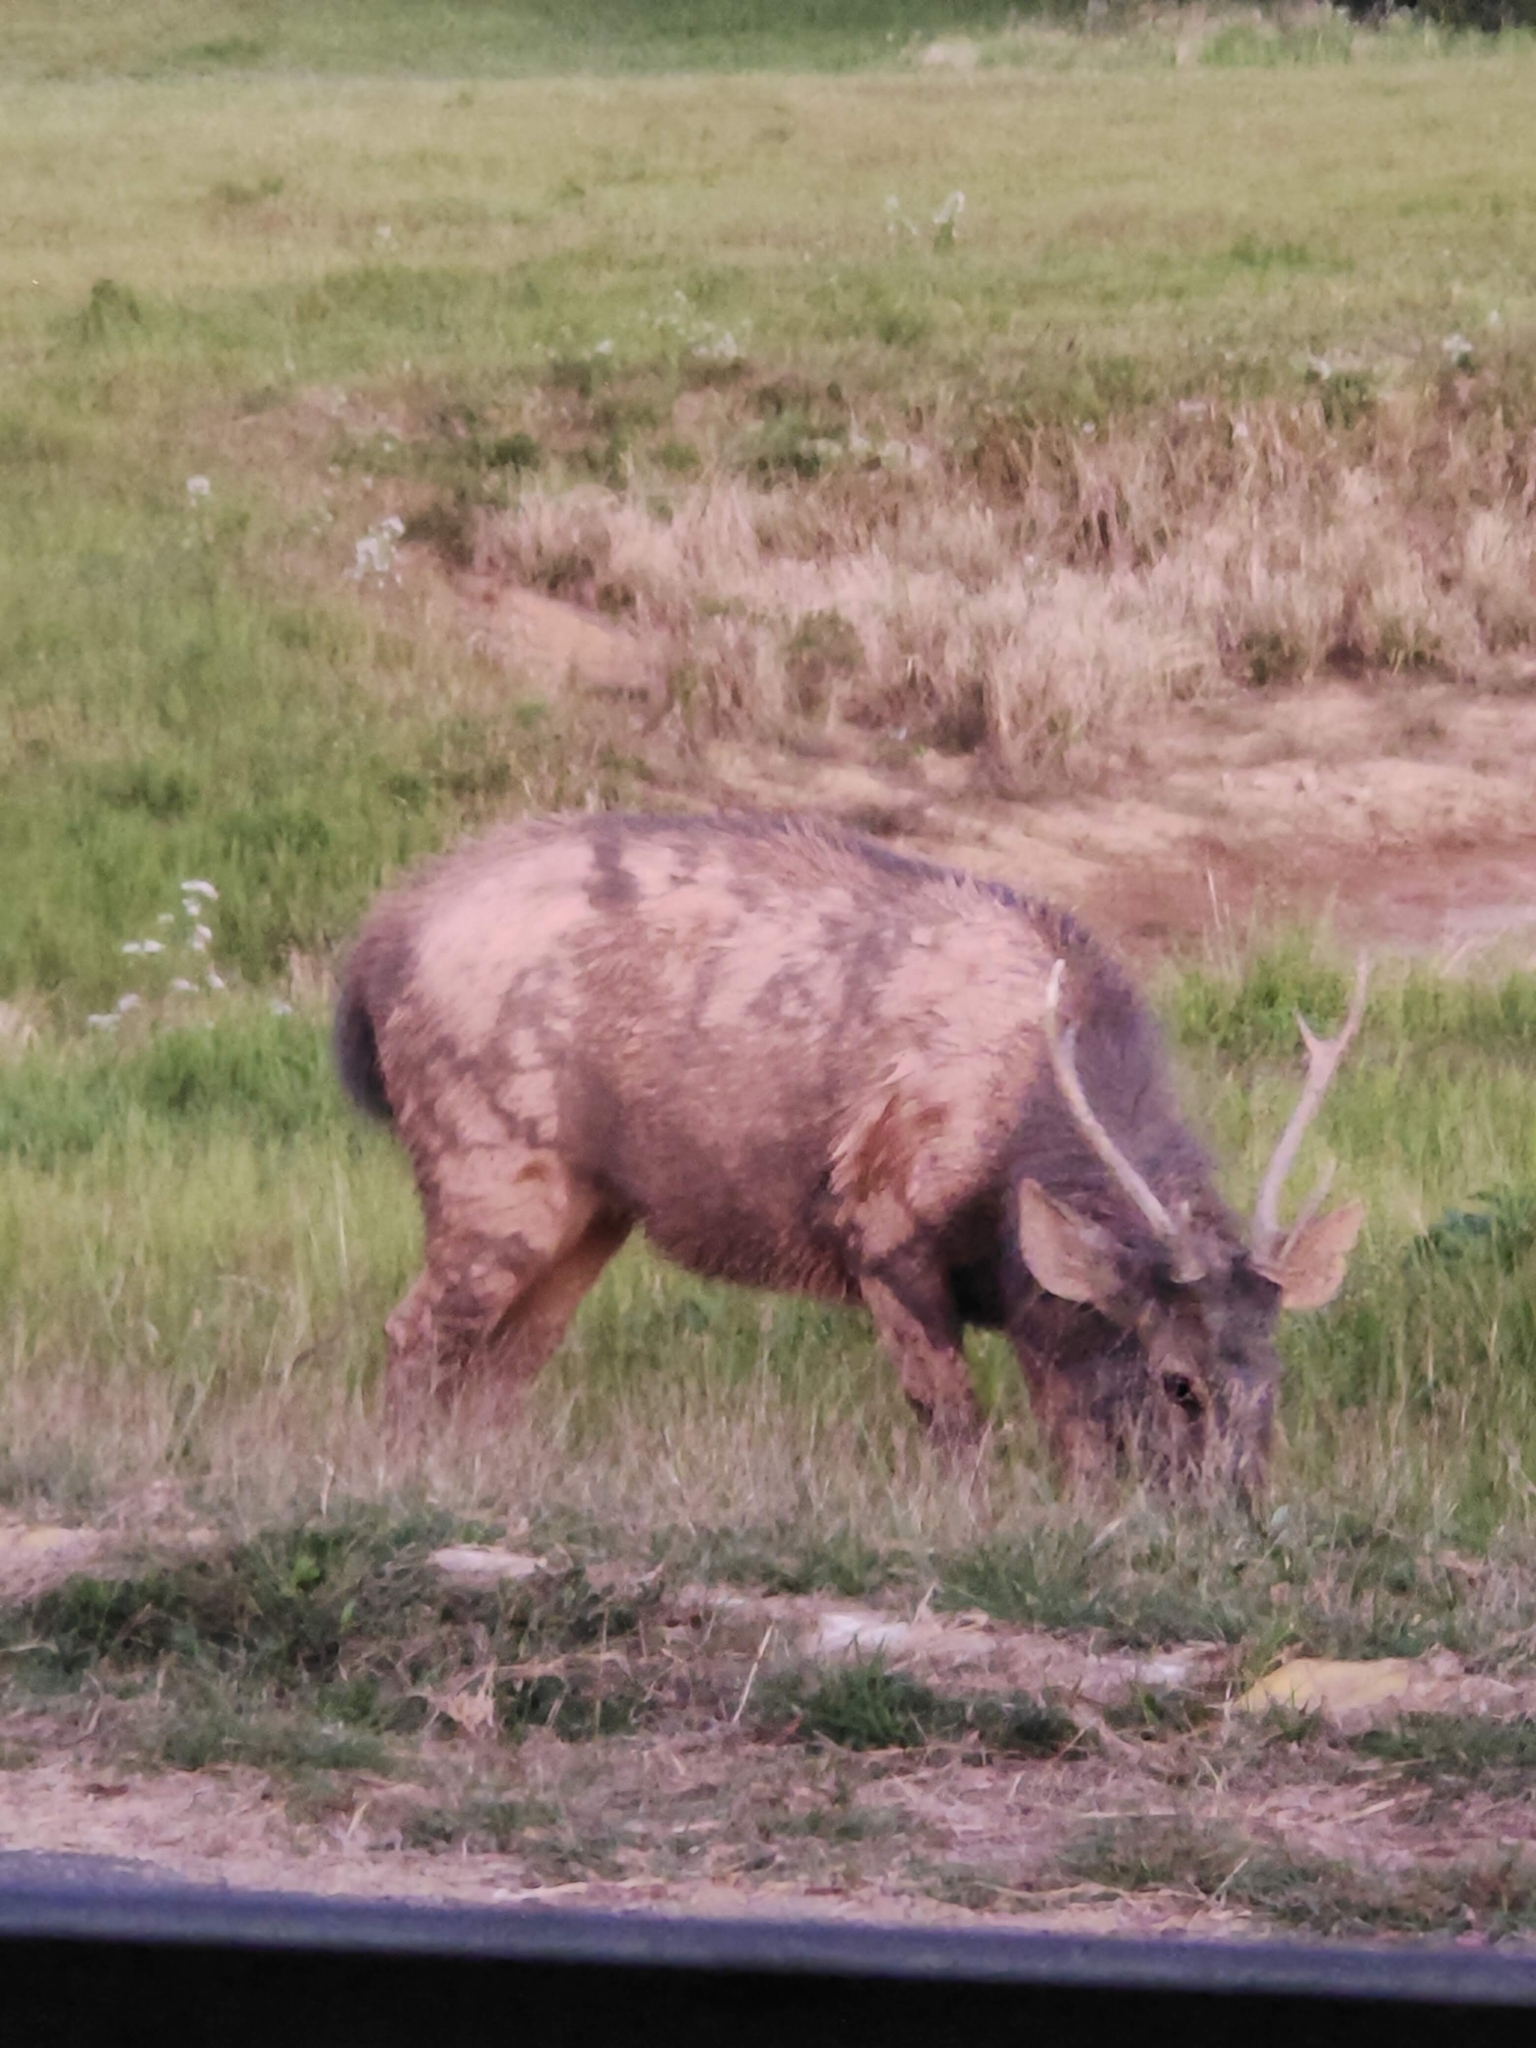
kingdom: Animalia
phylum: Chordata
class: Mammalia
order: Artiodactyla
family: Cervidae
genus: Rusa
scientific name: Rusa unicolor
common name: Sambar
